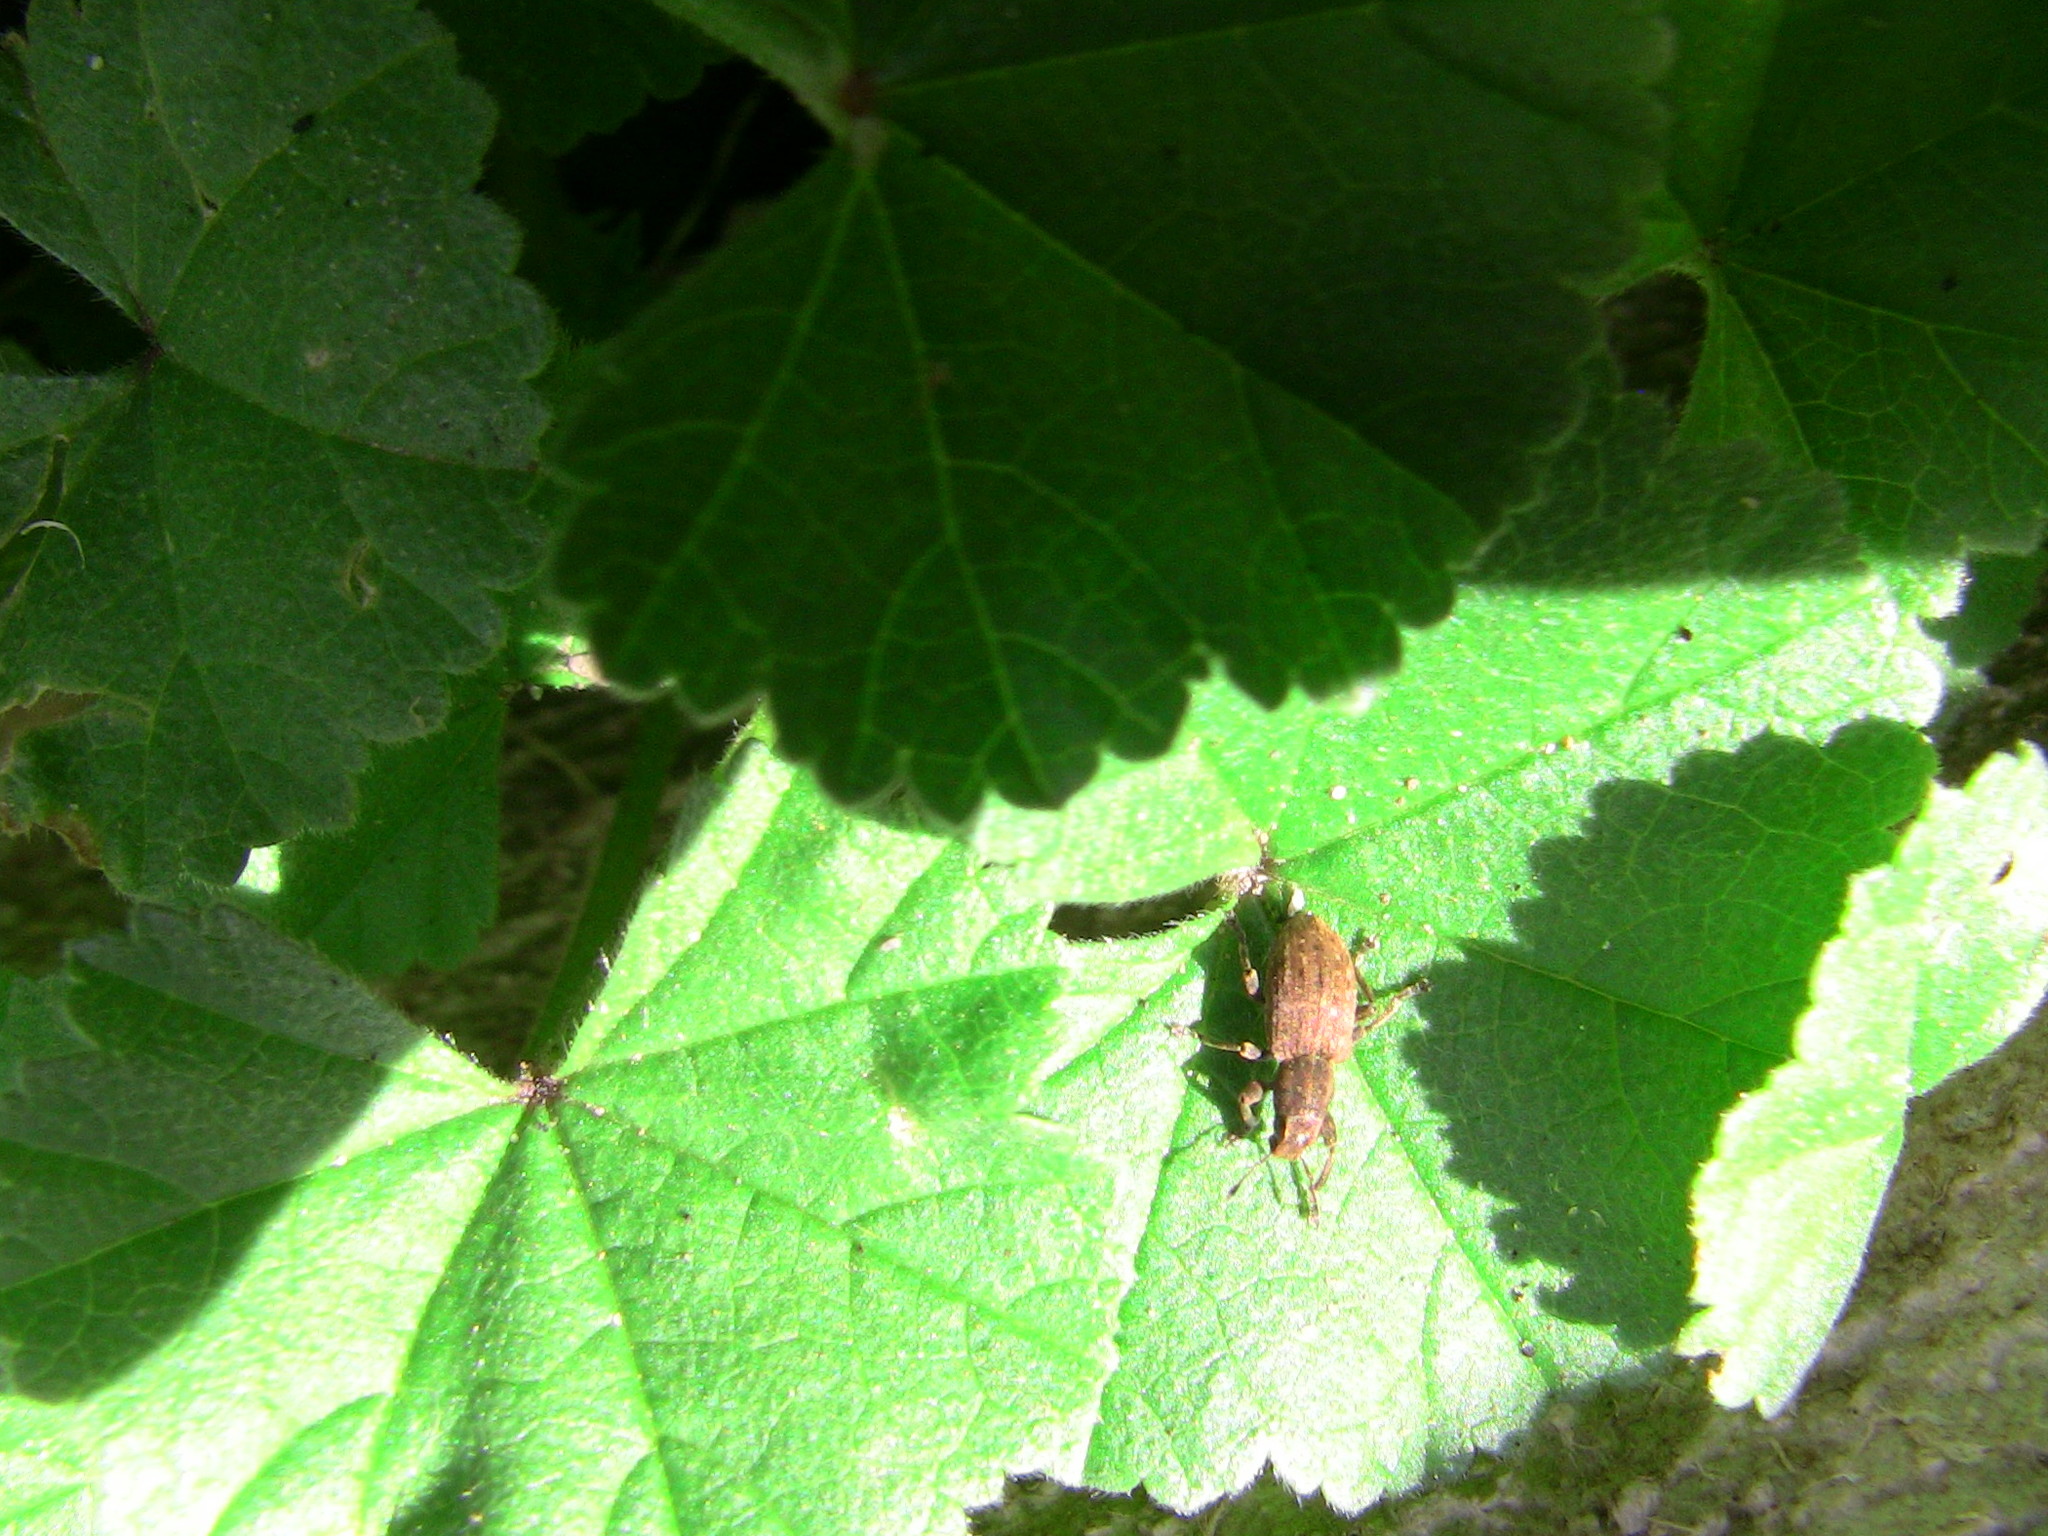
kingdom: Animalia
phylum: Arthropoda
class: Insecta
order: Coleoptera
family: Curculionidae
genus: Sitona
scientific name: Sitona obsoletus
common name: Weevil
